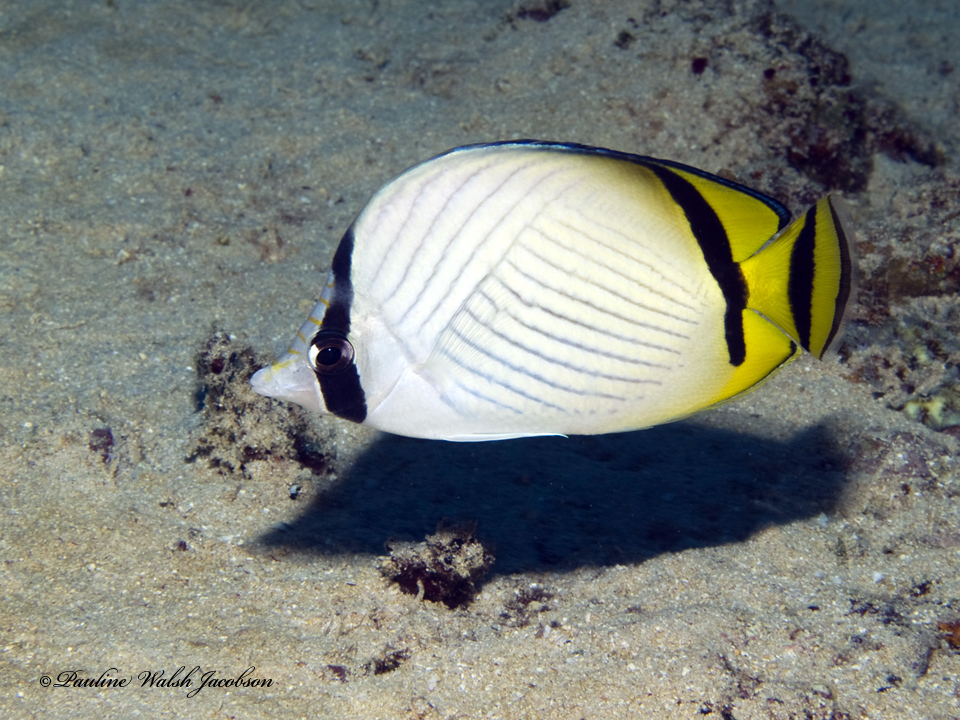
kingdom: Animalia
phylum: Chordata
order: Perciformes
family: Chaetodontidae
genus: Chaetodon
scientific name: Chaetodon vagabundus
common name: Vagabond butterflyfish
